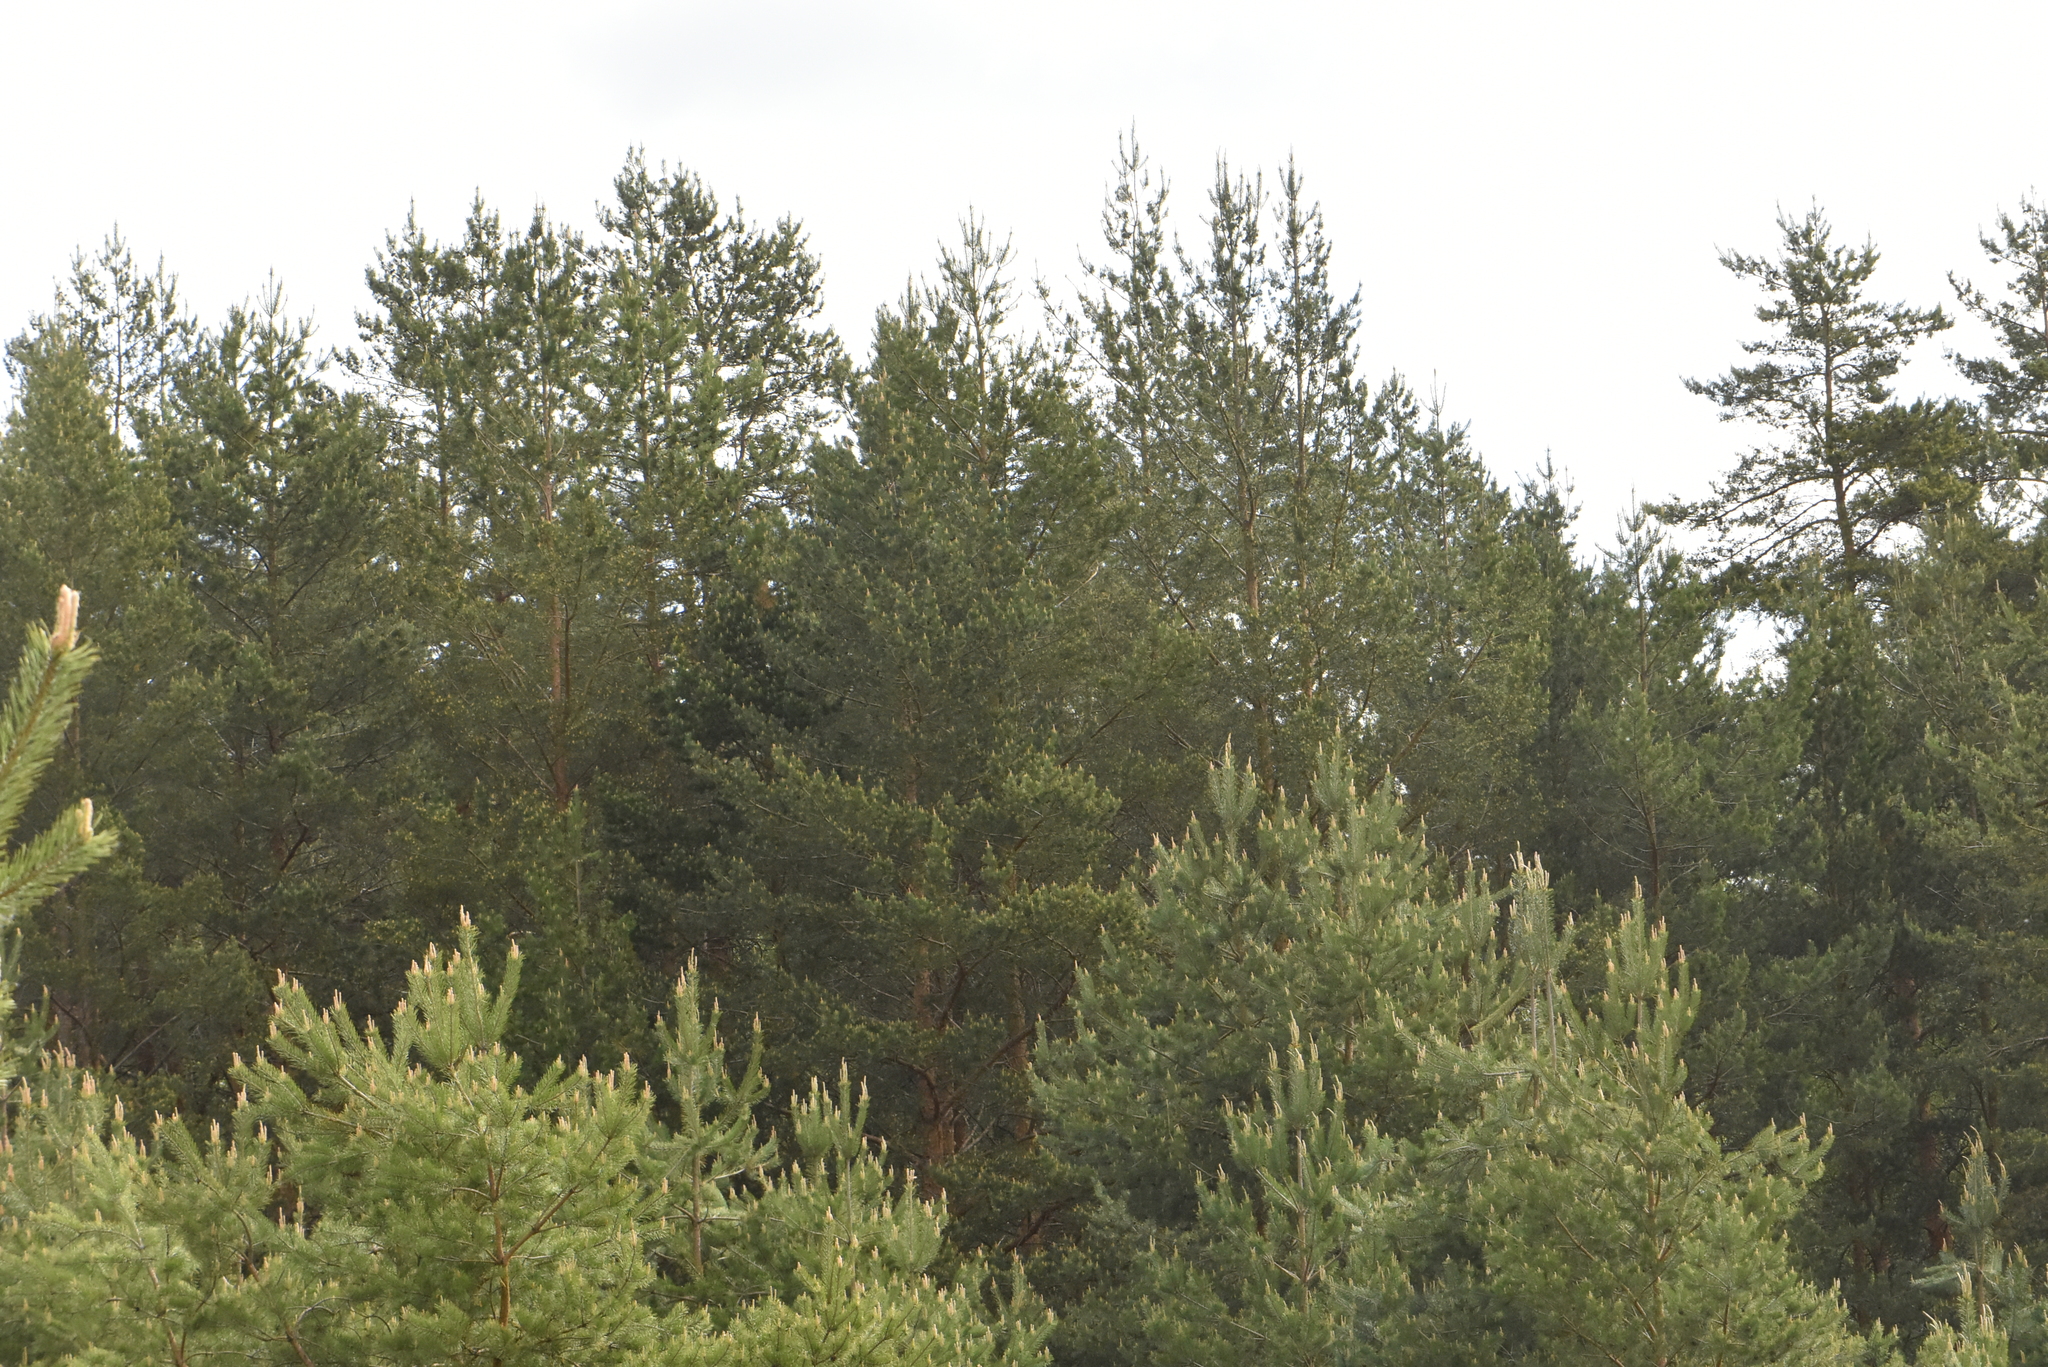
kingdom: Plantae
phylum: Tracheophyta
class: Pinopsida
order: Pinales
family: Pinaceae
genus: Pinus
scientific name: Pinus sylvestris
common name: Scots pine
